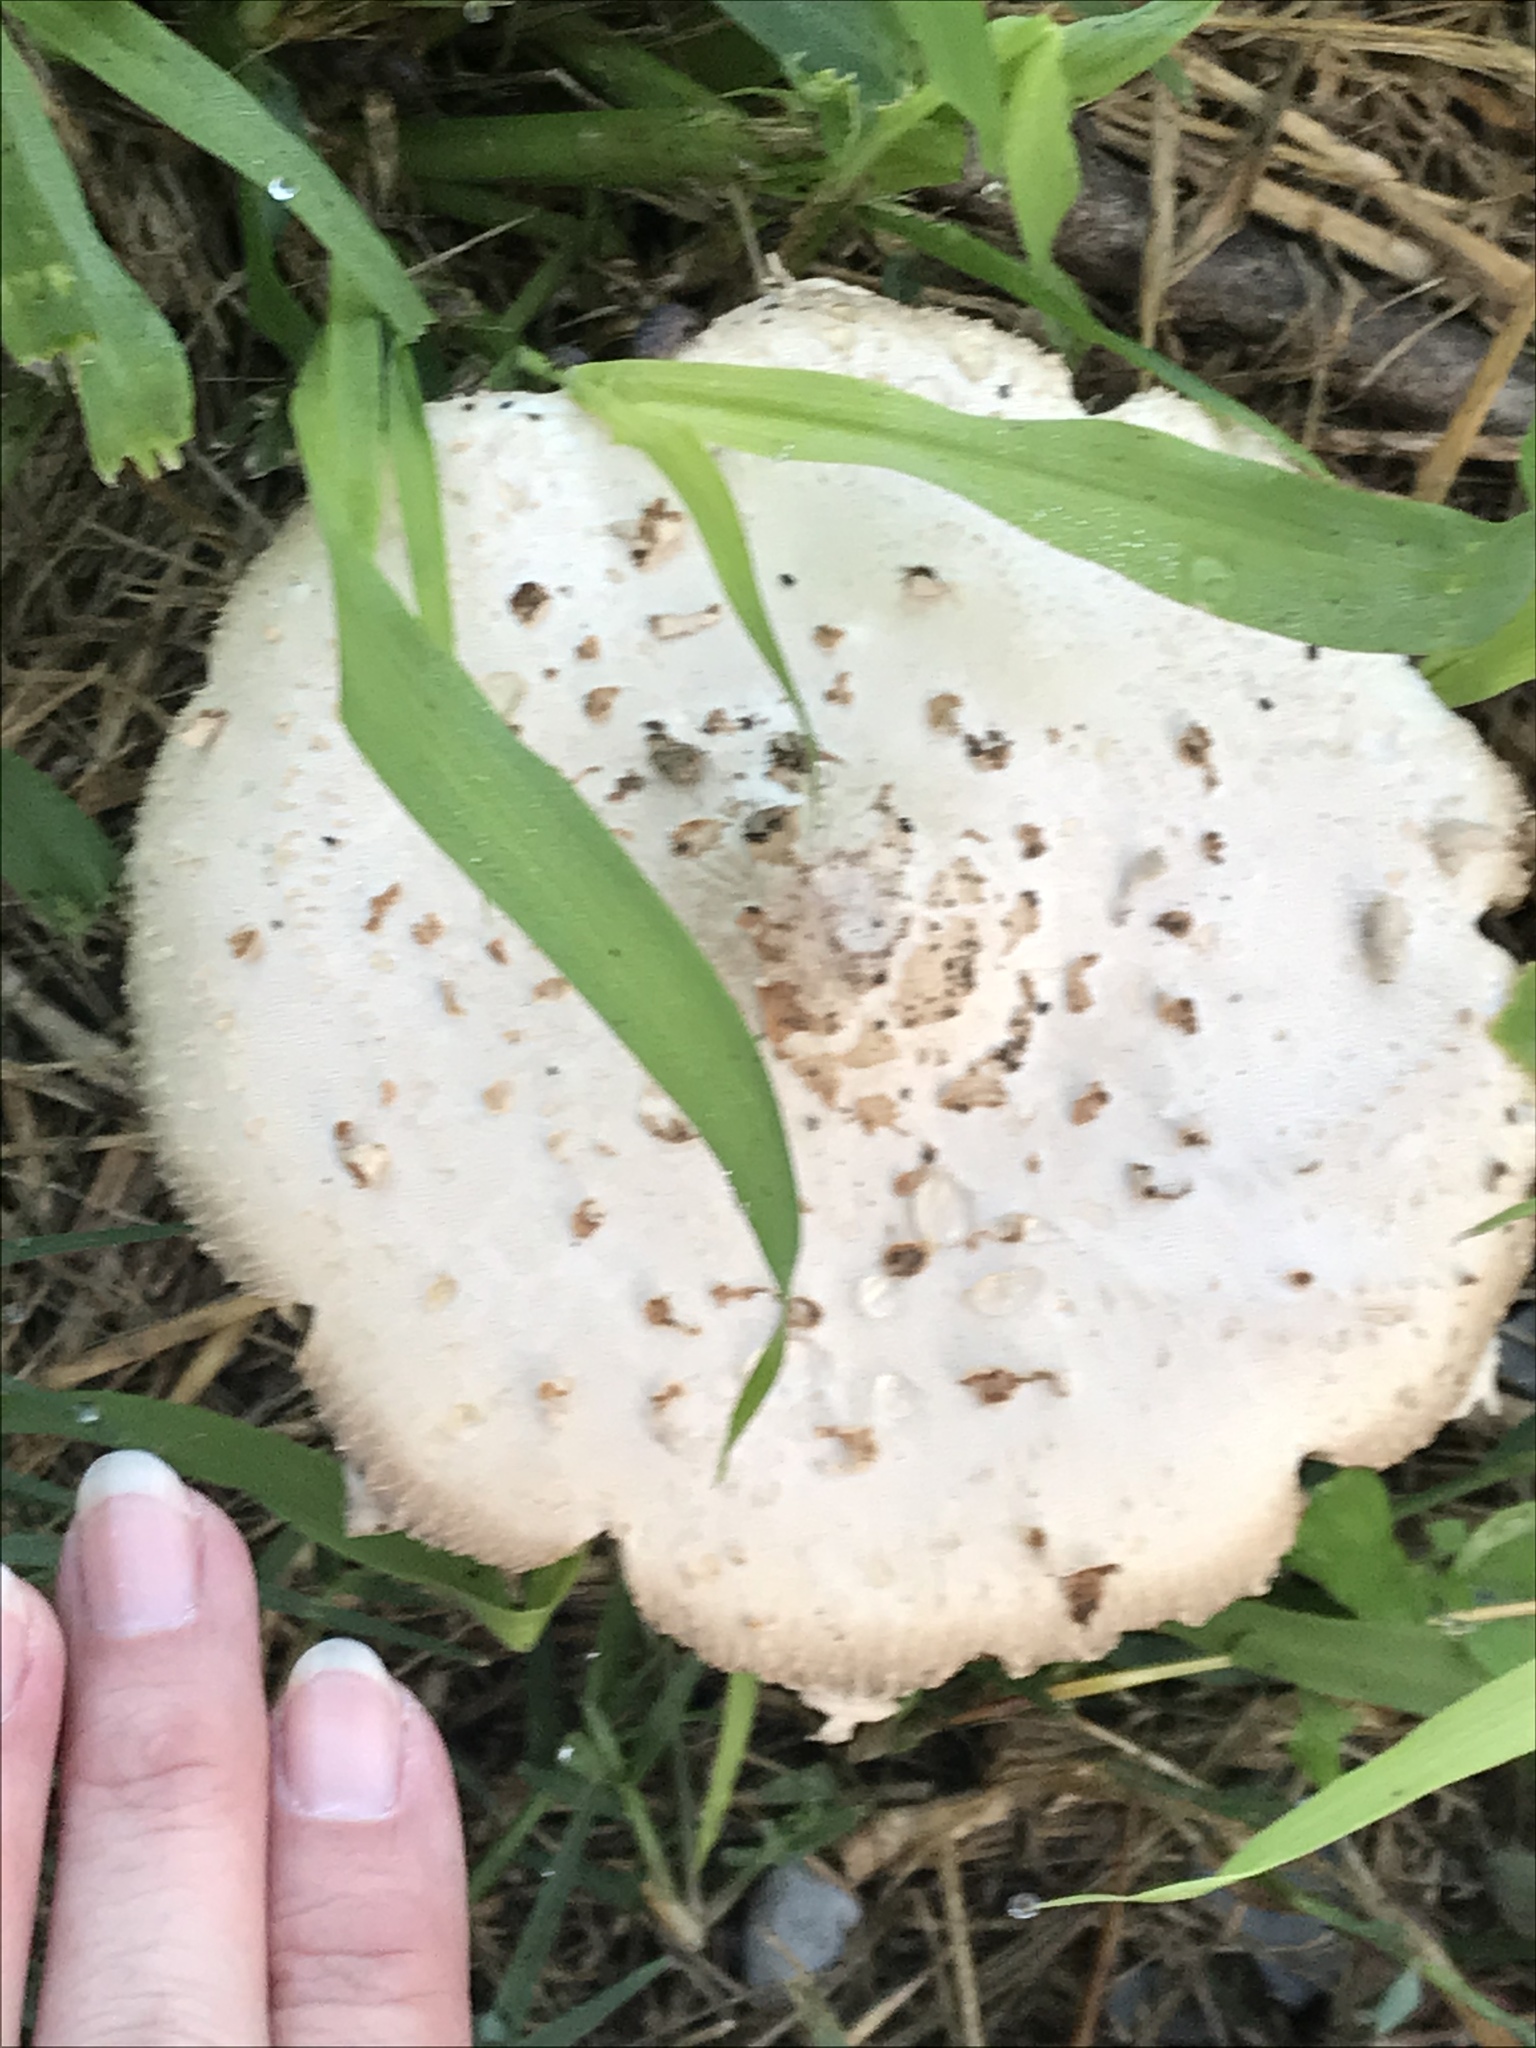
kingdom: Fungi
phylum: Basidiomycota
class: Agaricomycetes
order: Agaricales
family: Agaricaceae
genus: Chlorophyllum
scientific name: Chlorophyllum molybdites
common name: False parasol
